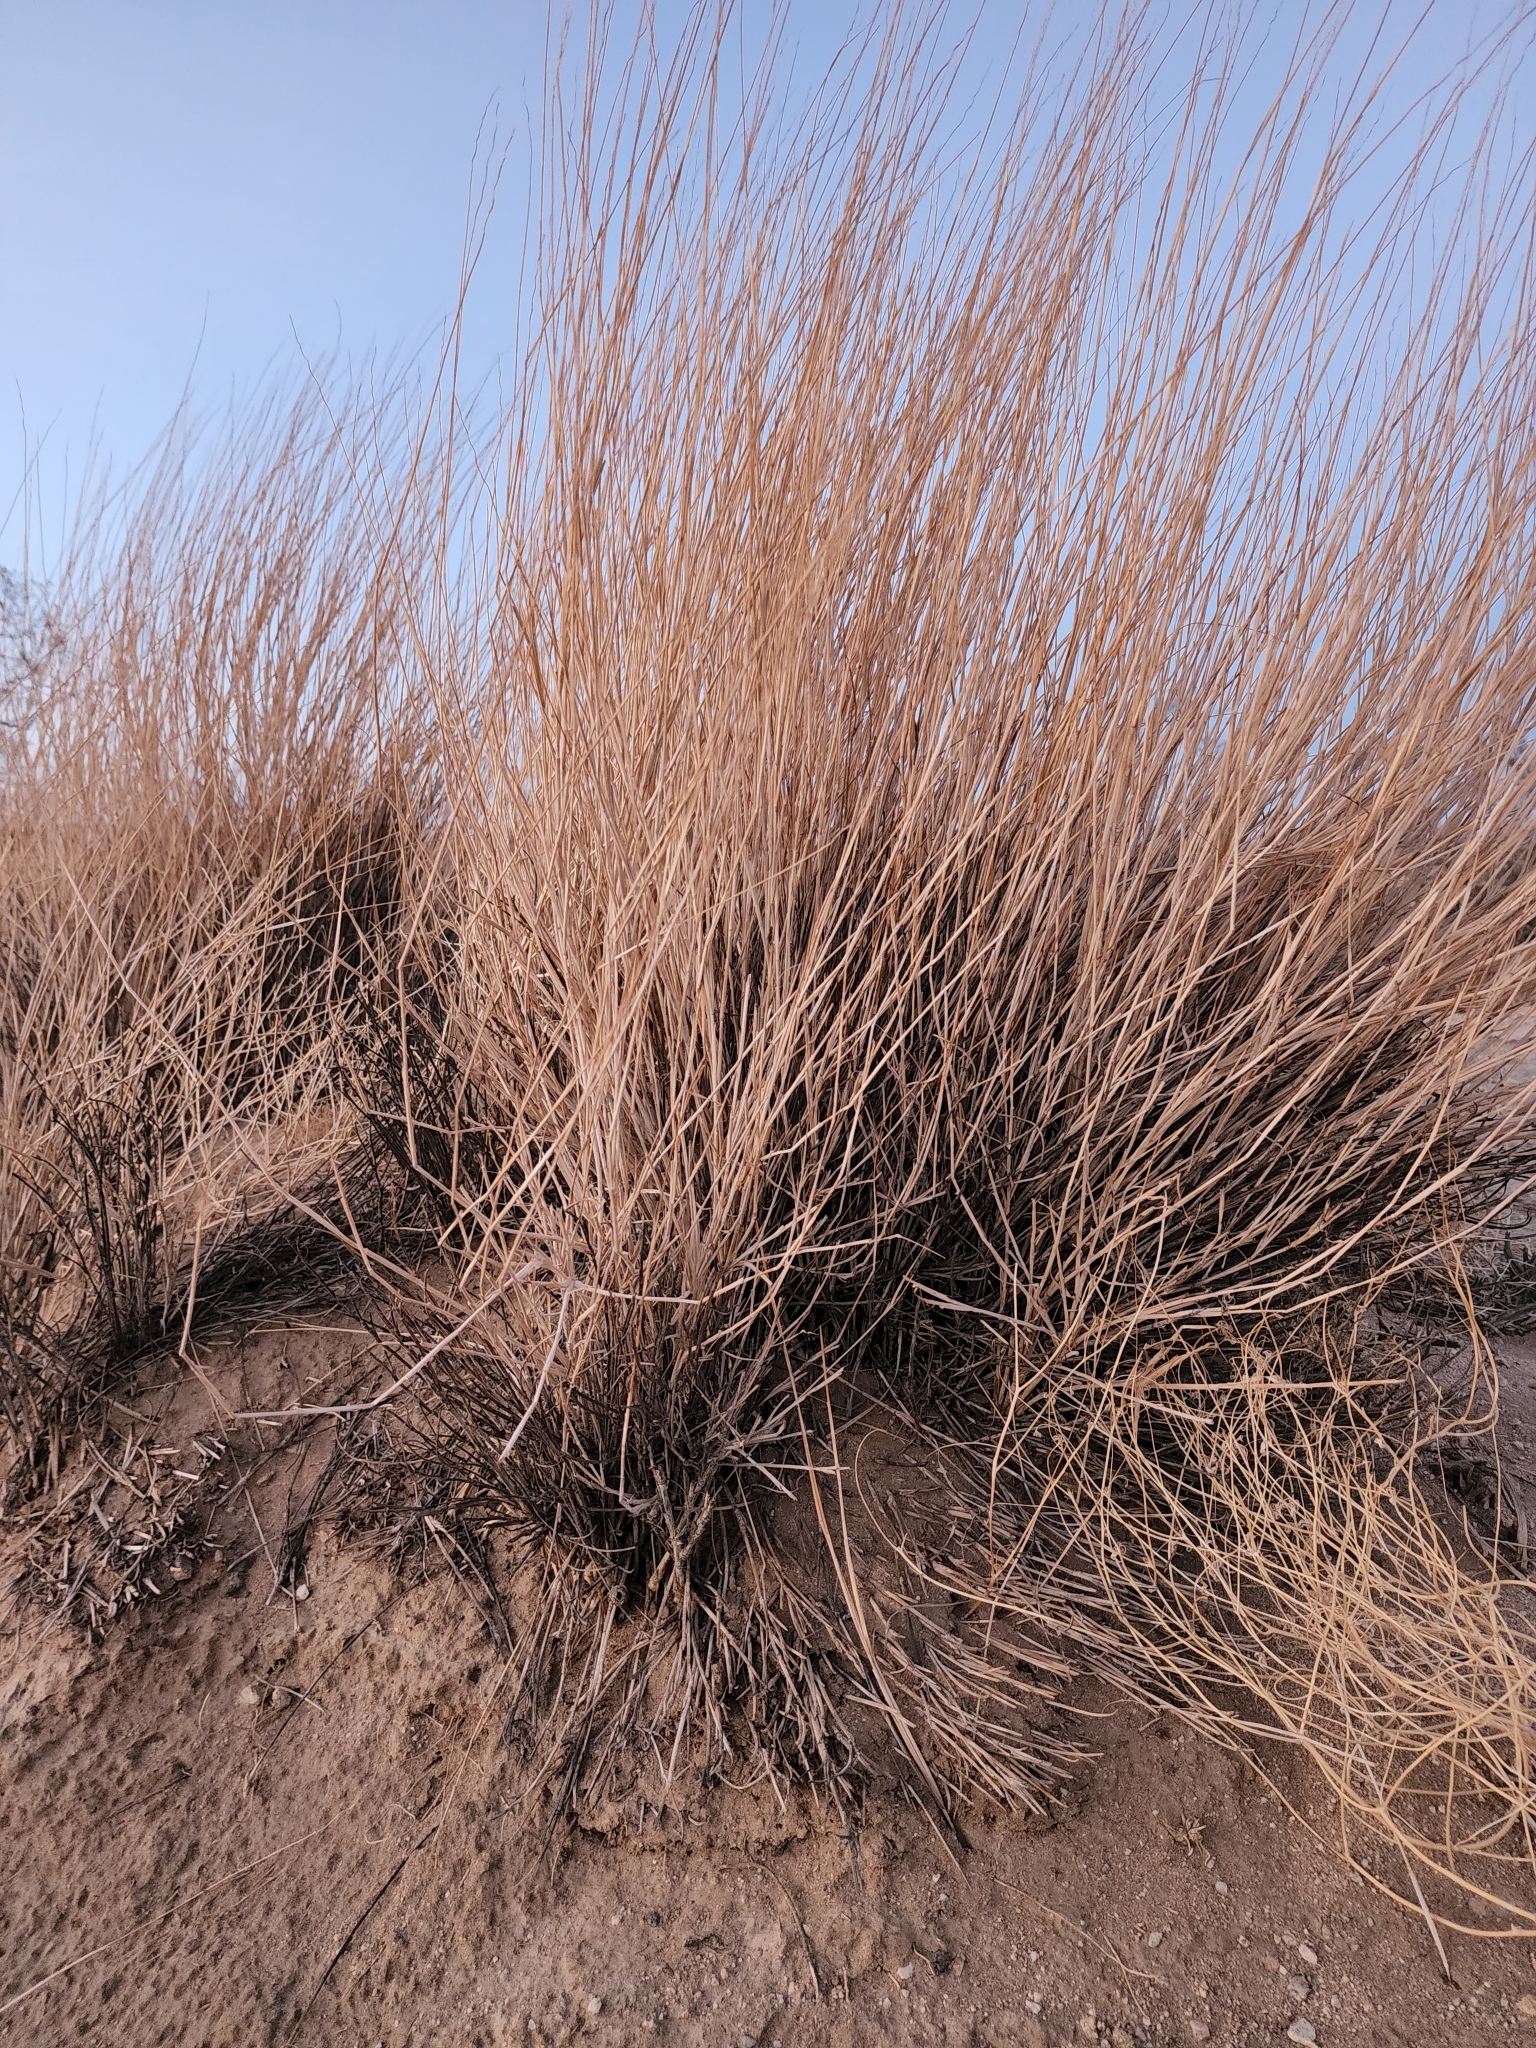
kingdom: Plantae
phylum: Tracheophyta
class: Liliopsida
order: Poales
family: Poaceae
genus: Hilaria
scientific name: Hilaria rigida
